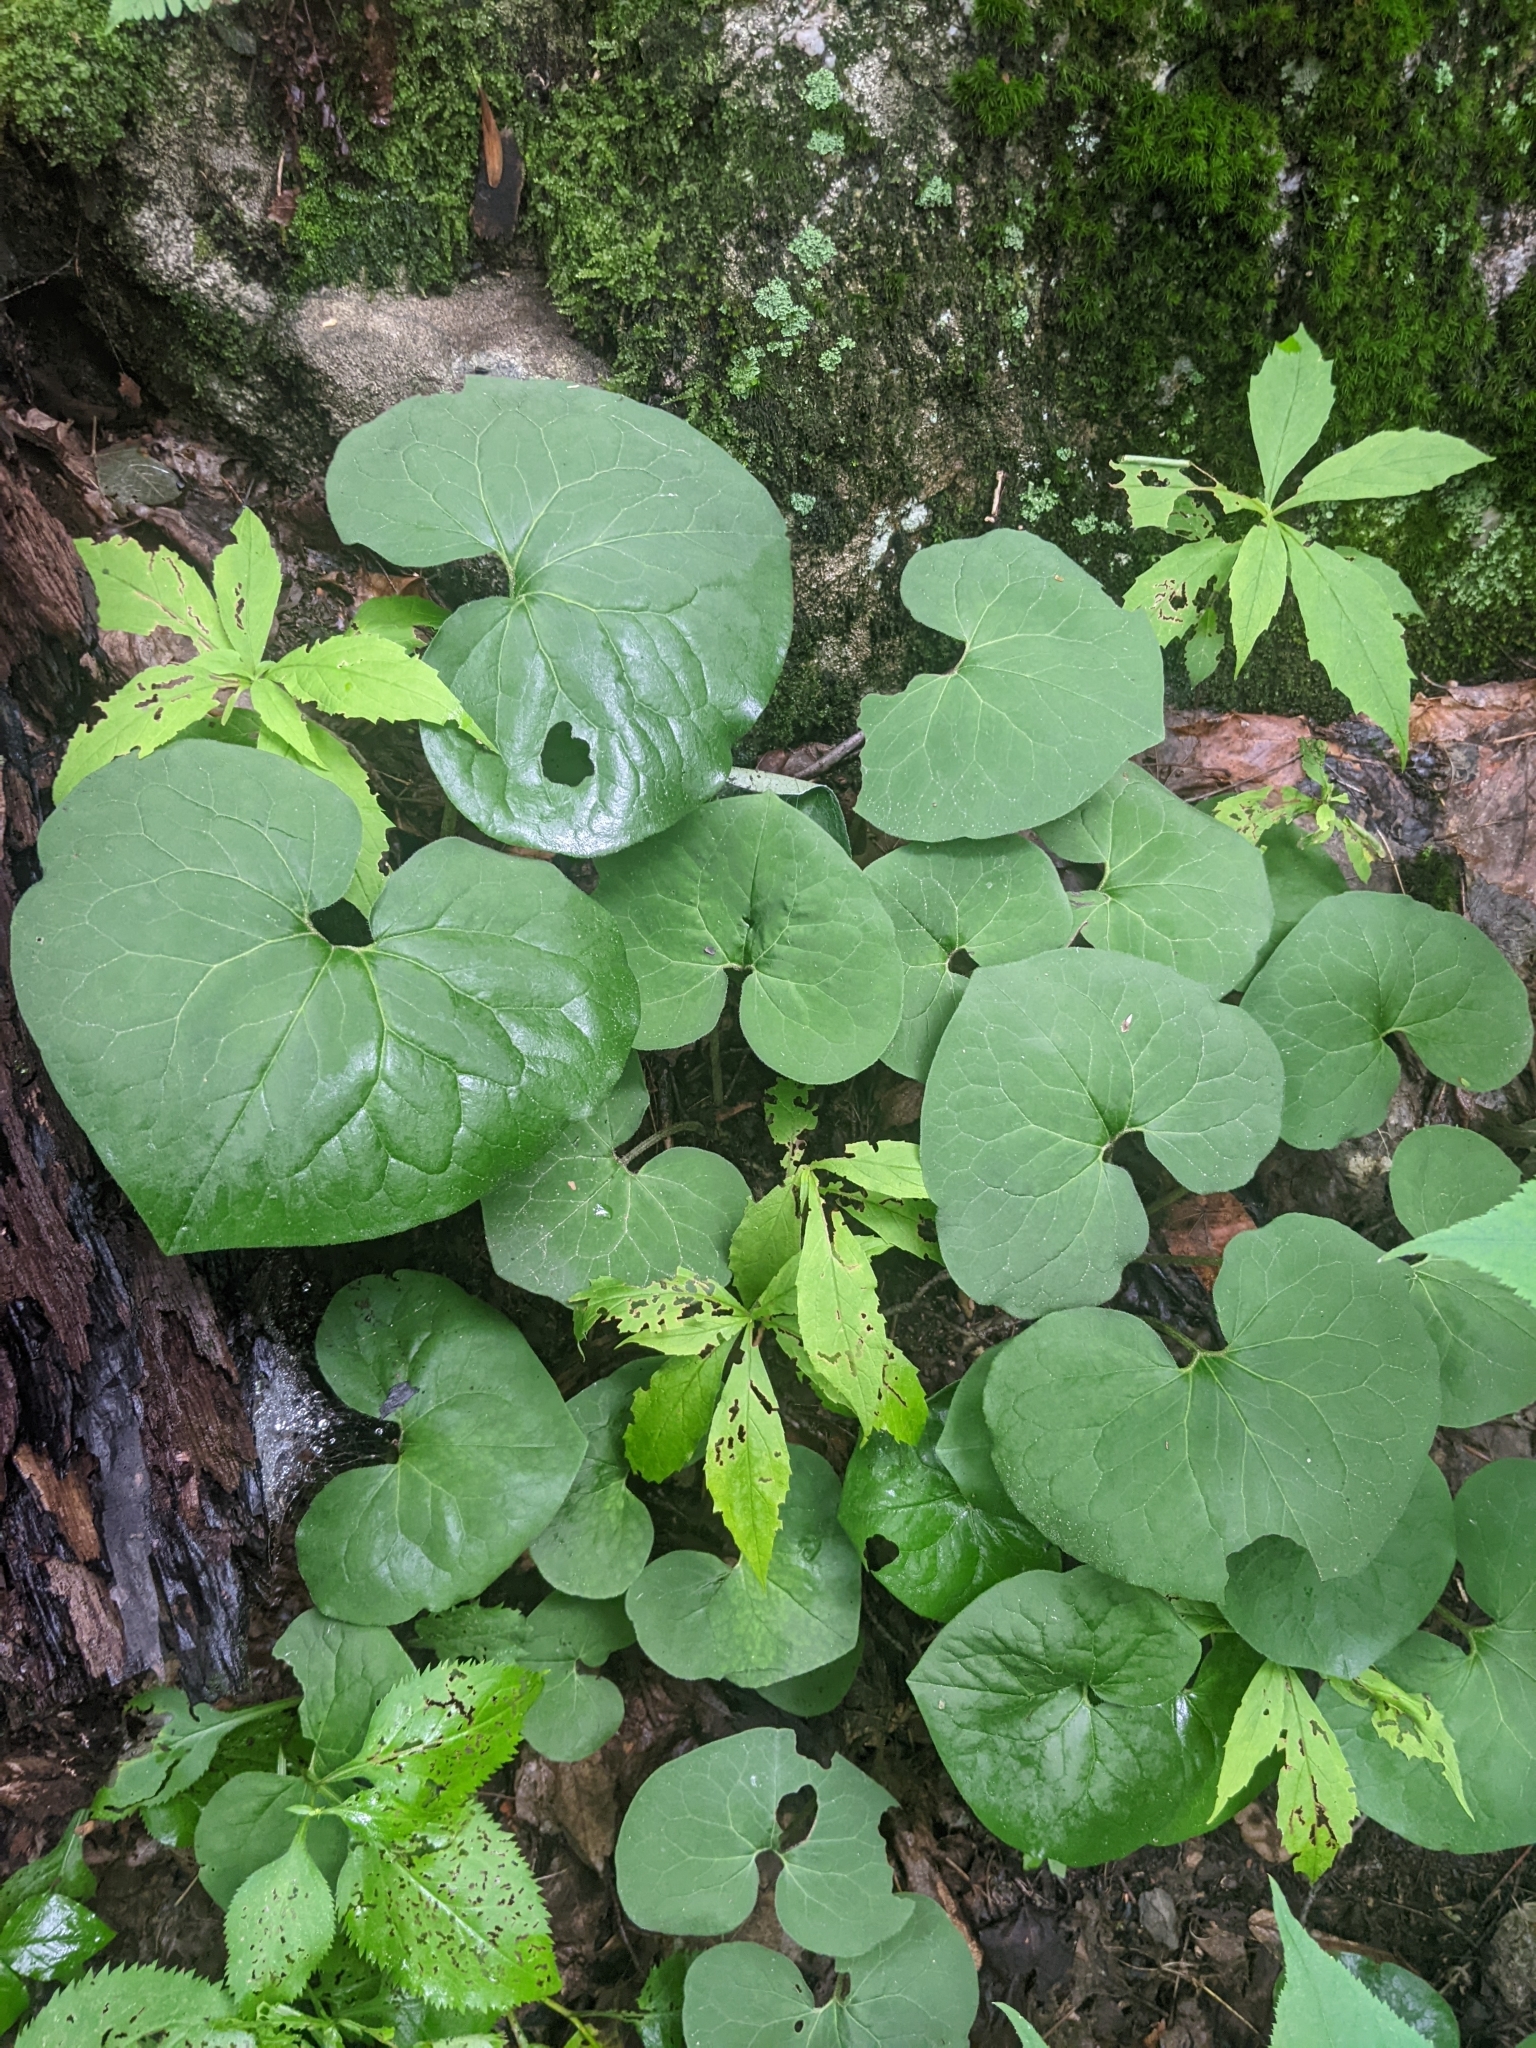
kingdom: Plantae
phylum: Tracheophyta
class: Magnoliopsida
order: Piperales
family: Aristolochiaceae
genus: Asarum
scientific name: Asarum canadense
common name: Wild ginger
